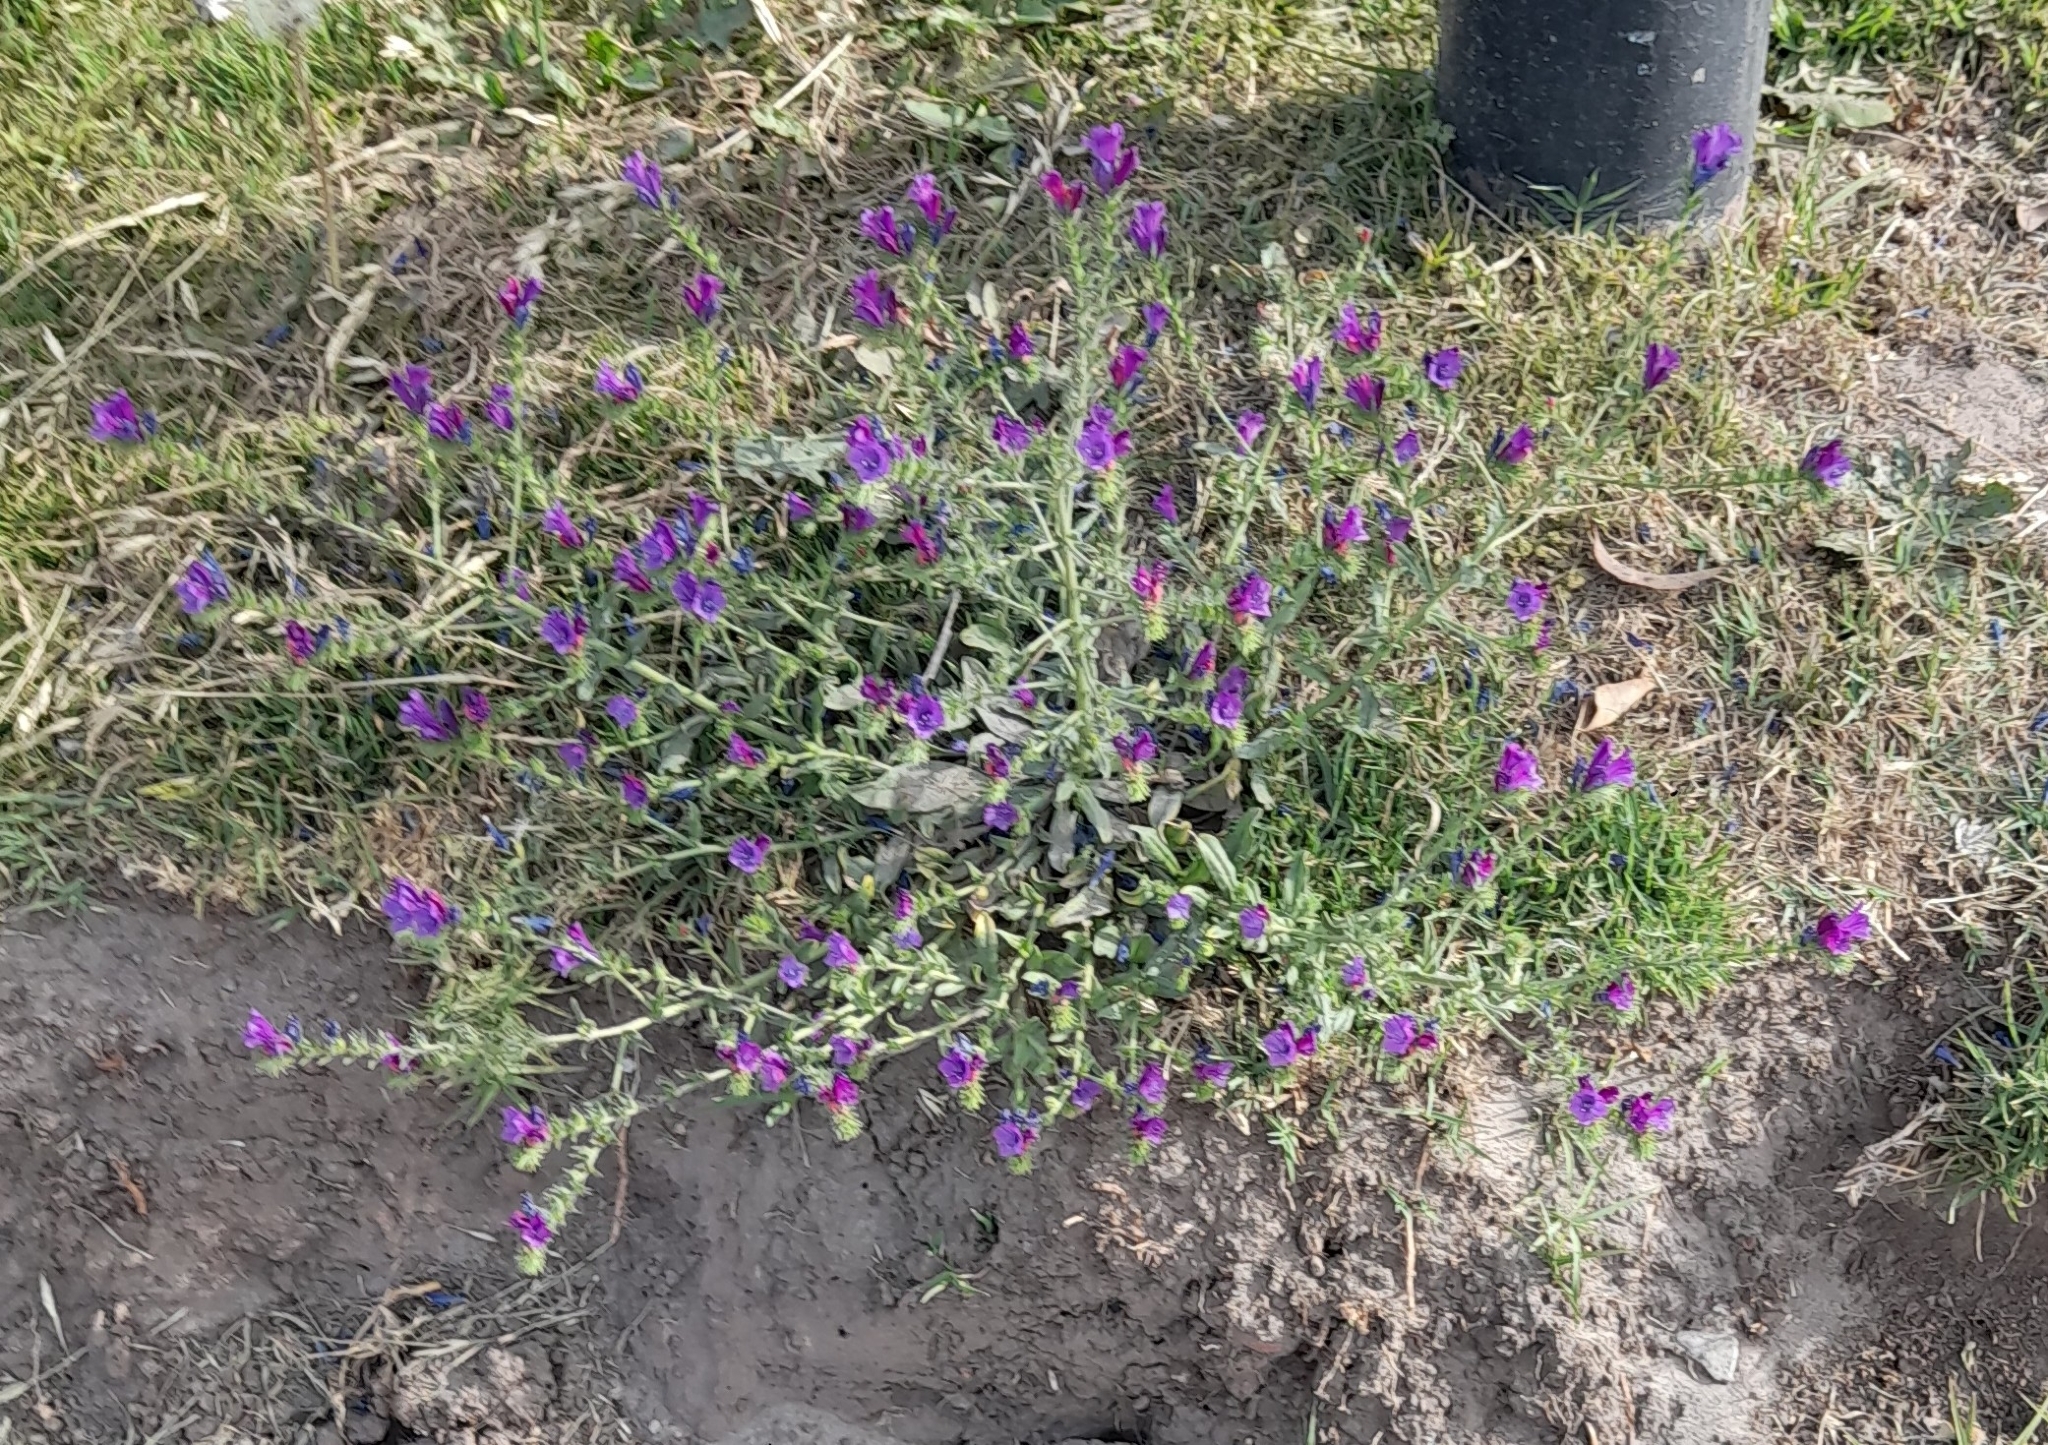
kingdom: Plantae
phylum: Tracheophyta
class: Magnoliopsida
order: Boraginales
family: Boraginaceae
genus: Echium
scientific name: Echium plantagineum
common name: Purple viper's-bugloss
